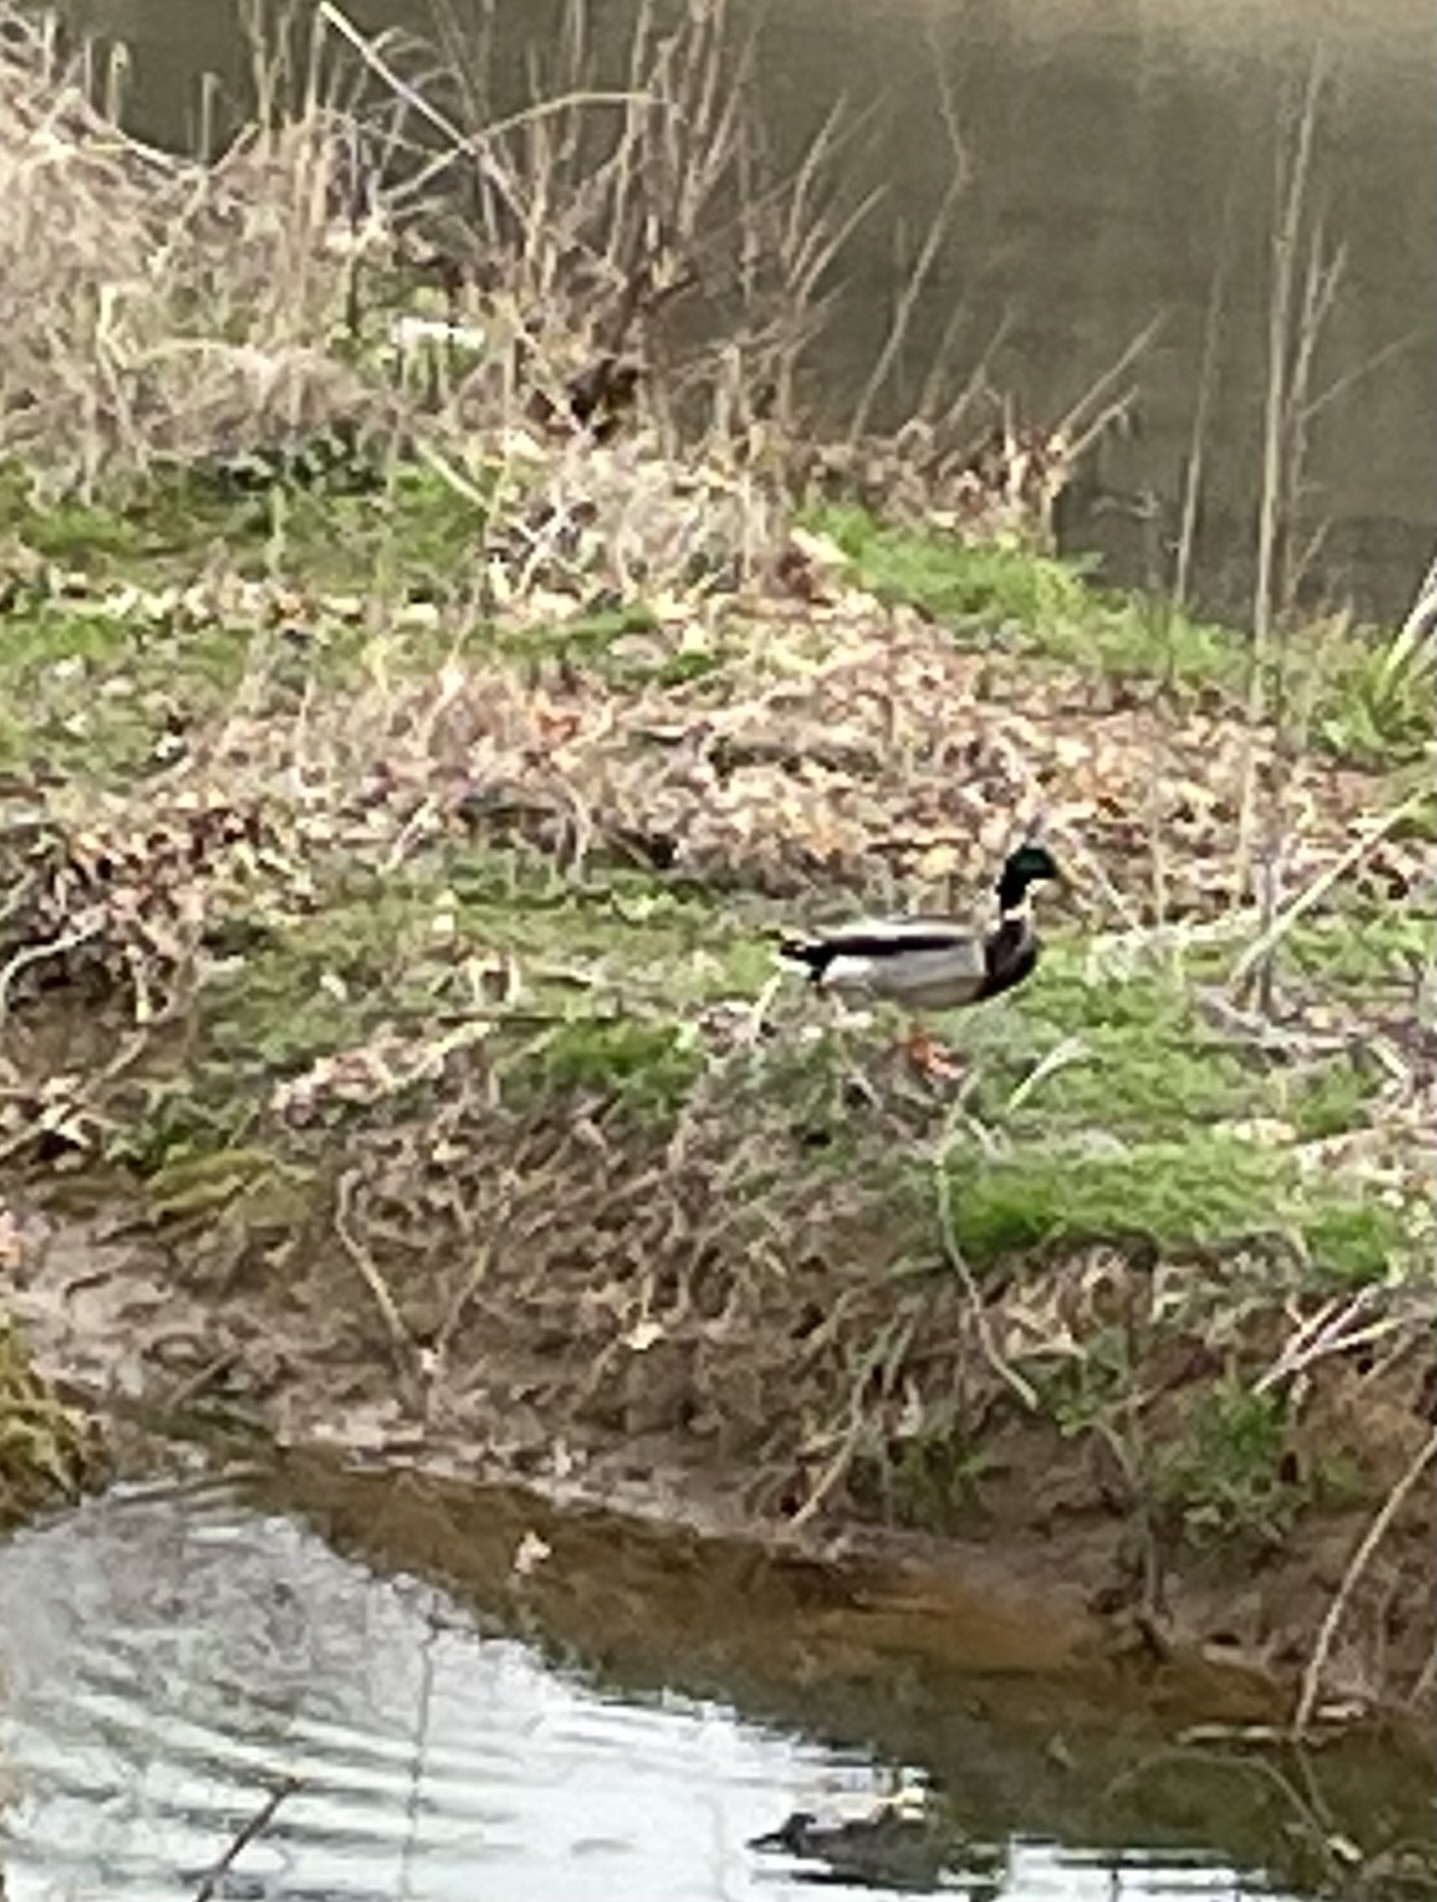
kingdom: Animalia
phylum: Chordata
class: Aves
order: Anseriformes
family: Anatidae
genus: Anas
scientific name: Anas platyrhynchos
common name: Mallard
